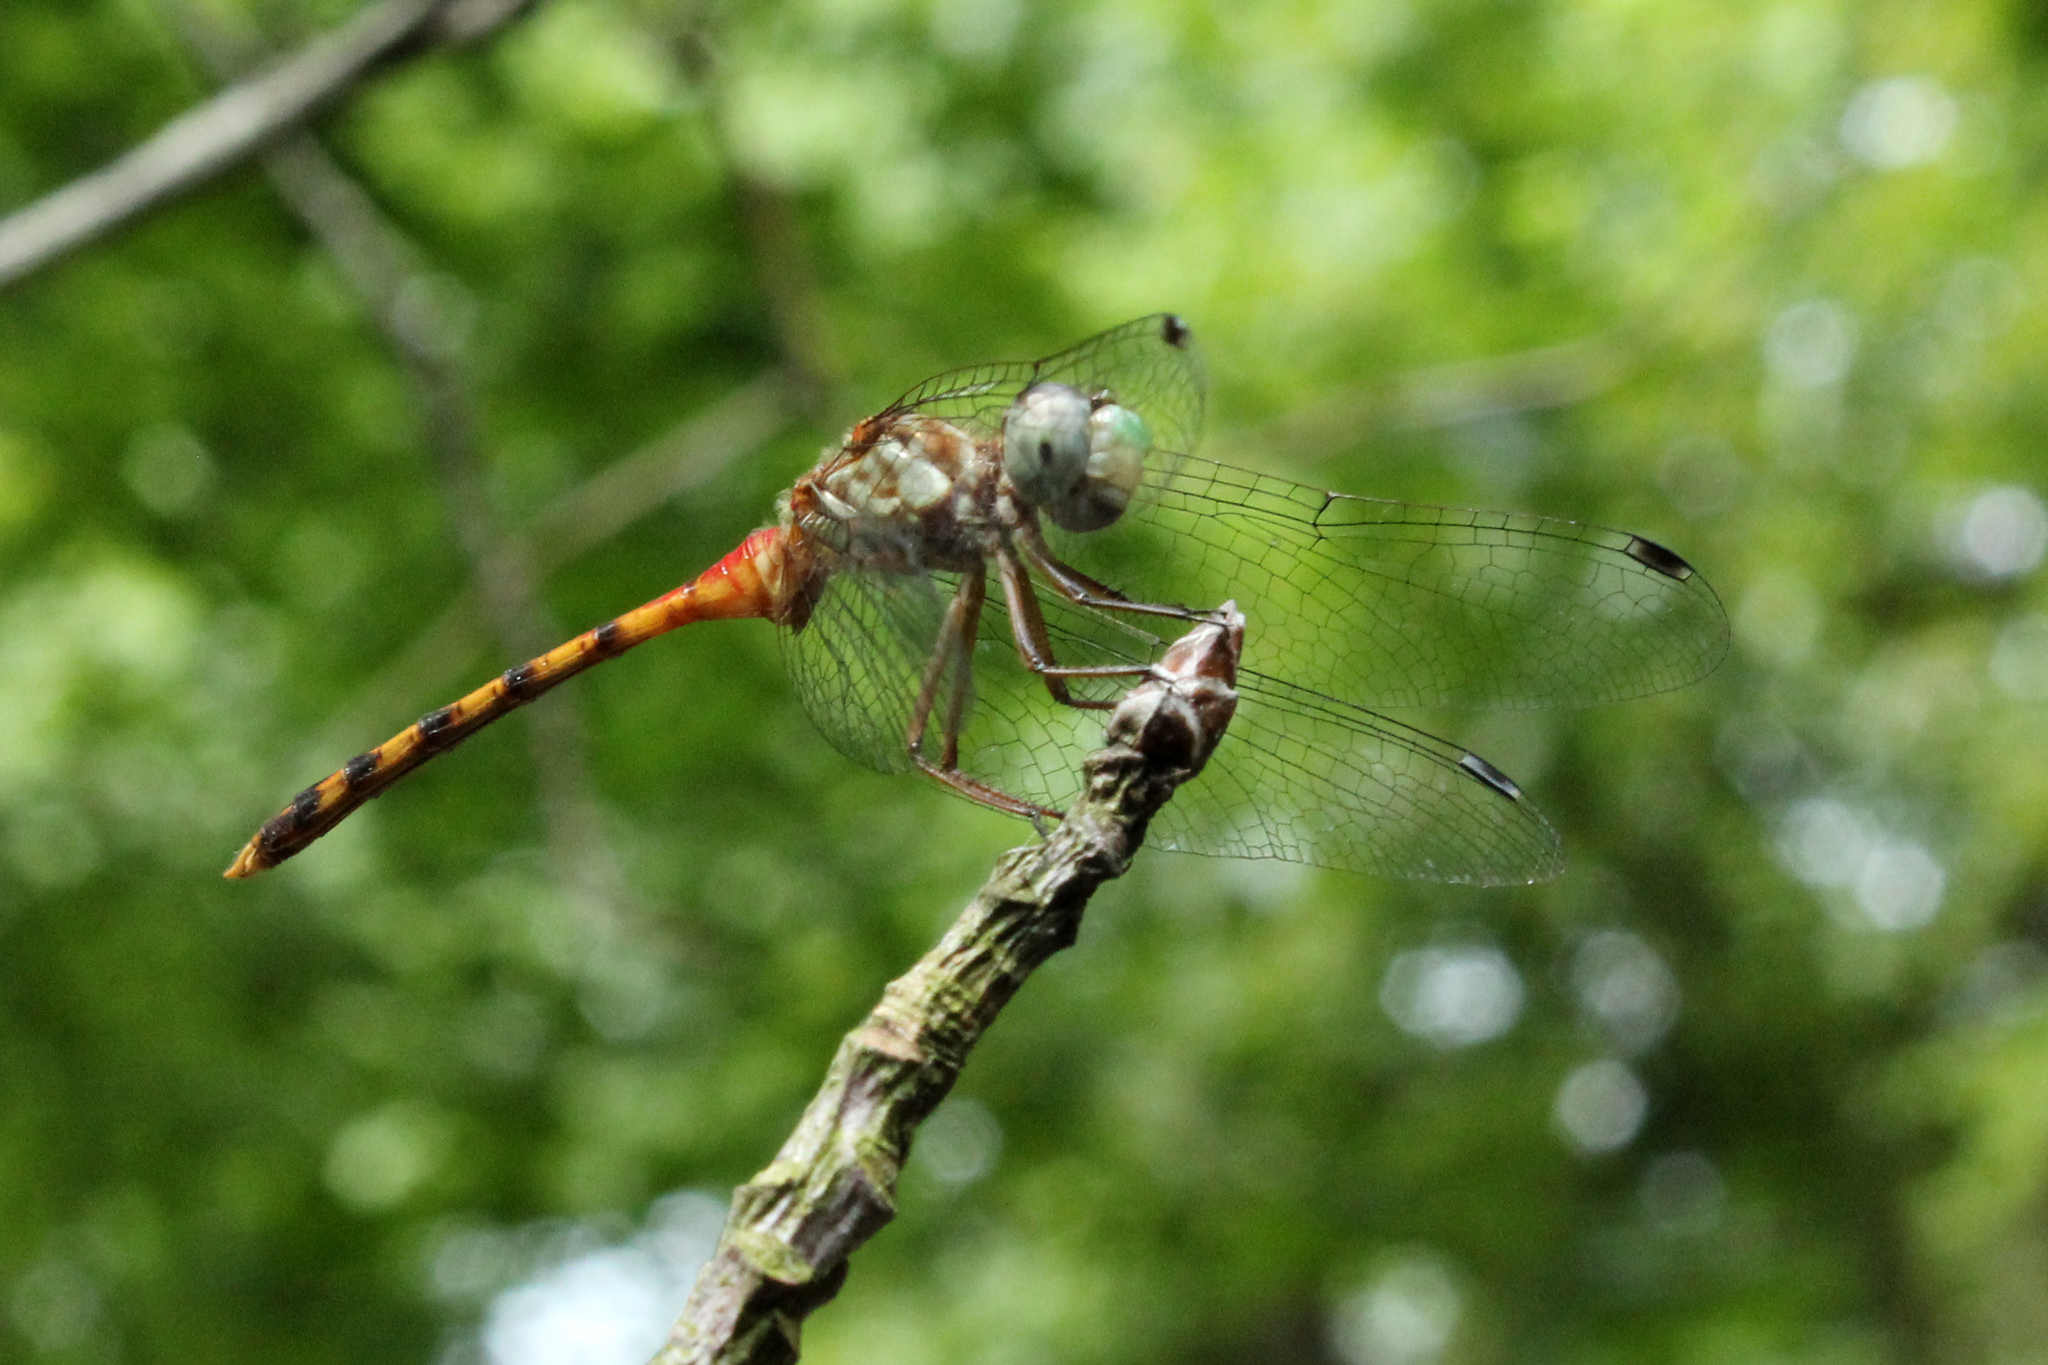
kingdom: Animalia
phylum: Arthropoda
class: Insecta
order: Odonata
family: Libellulidae
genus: Sympetrum
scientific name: Sympetrum ambiguum
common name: Blue-faced meadowhawk
